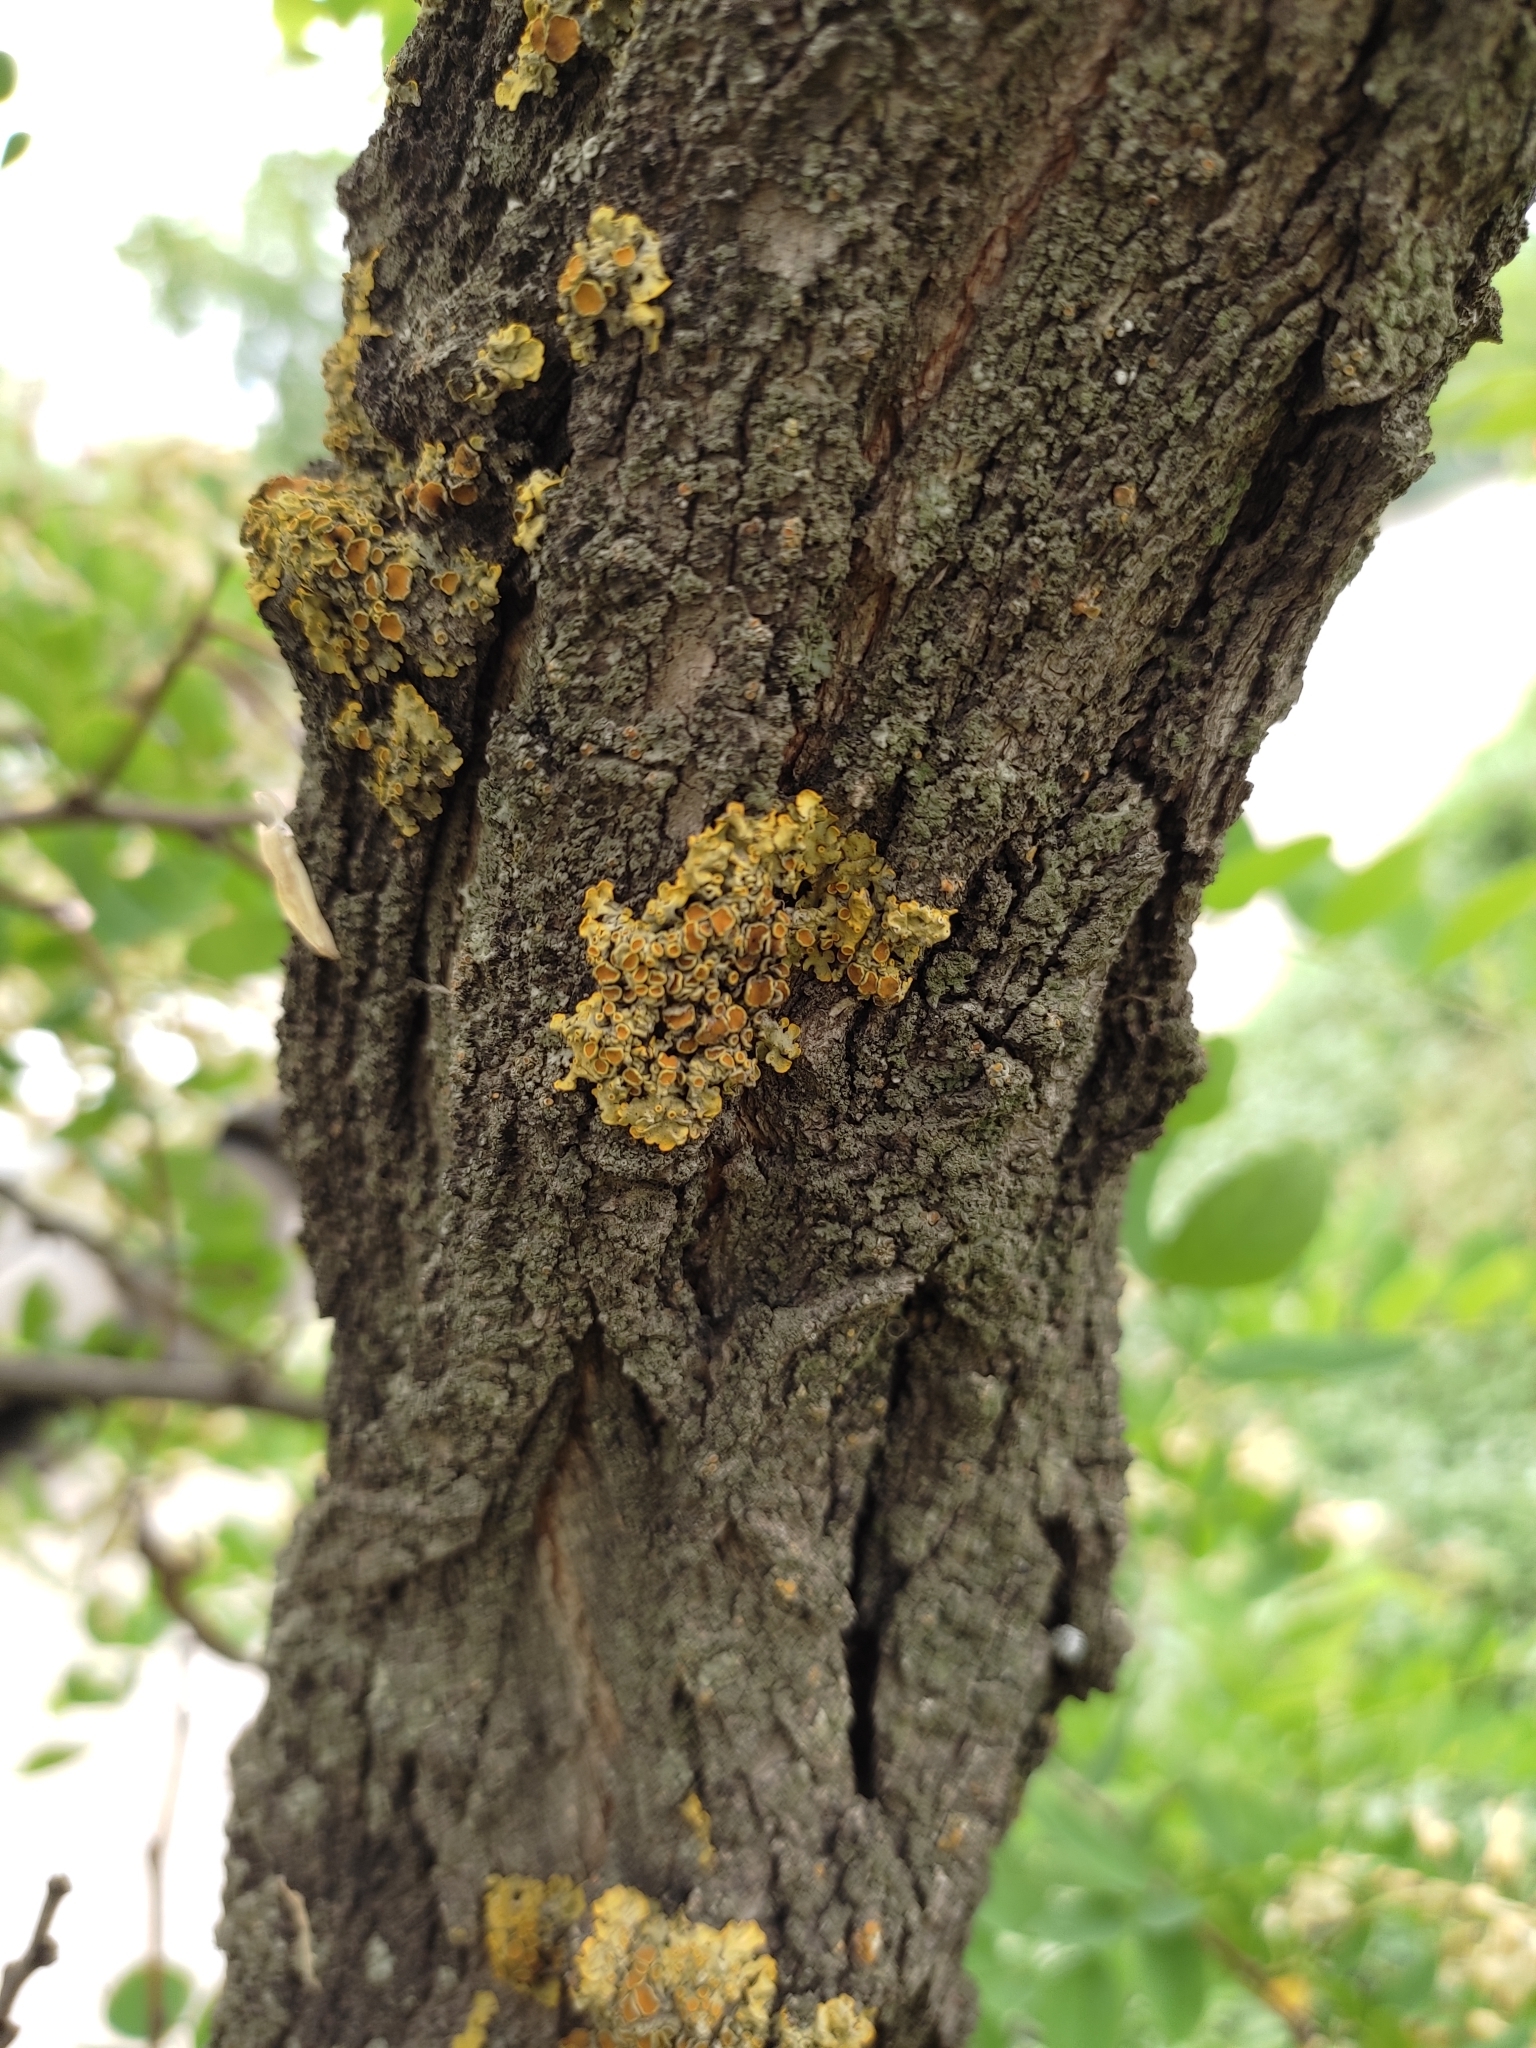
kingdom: Fungi
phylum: Ascomycota
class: Lecanoromycetes
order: Teloschistales
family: Teloschistaceae
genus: Xanthoria
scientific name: Xanthoria parietina
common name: Common orange lichen
